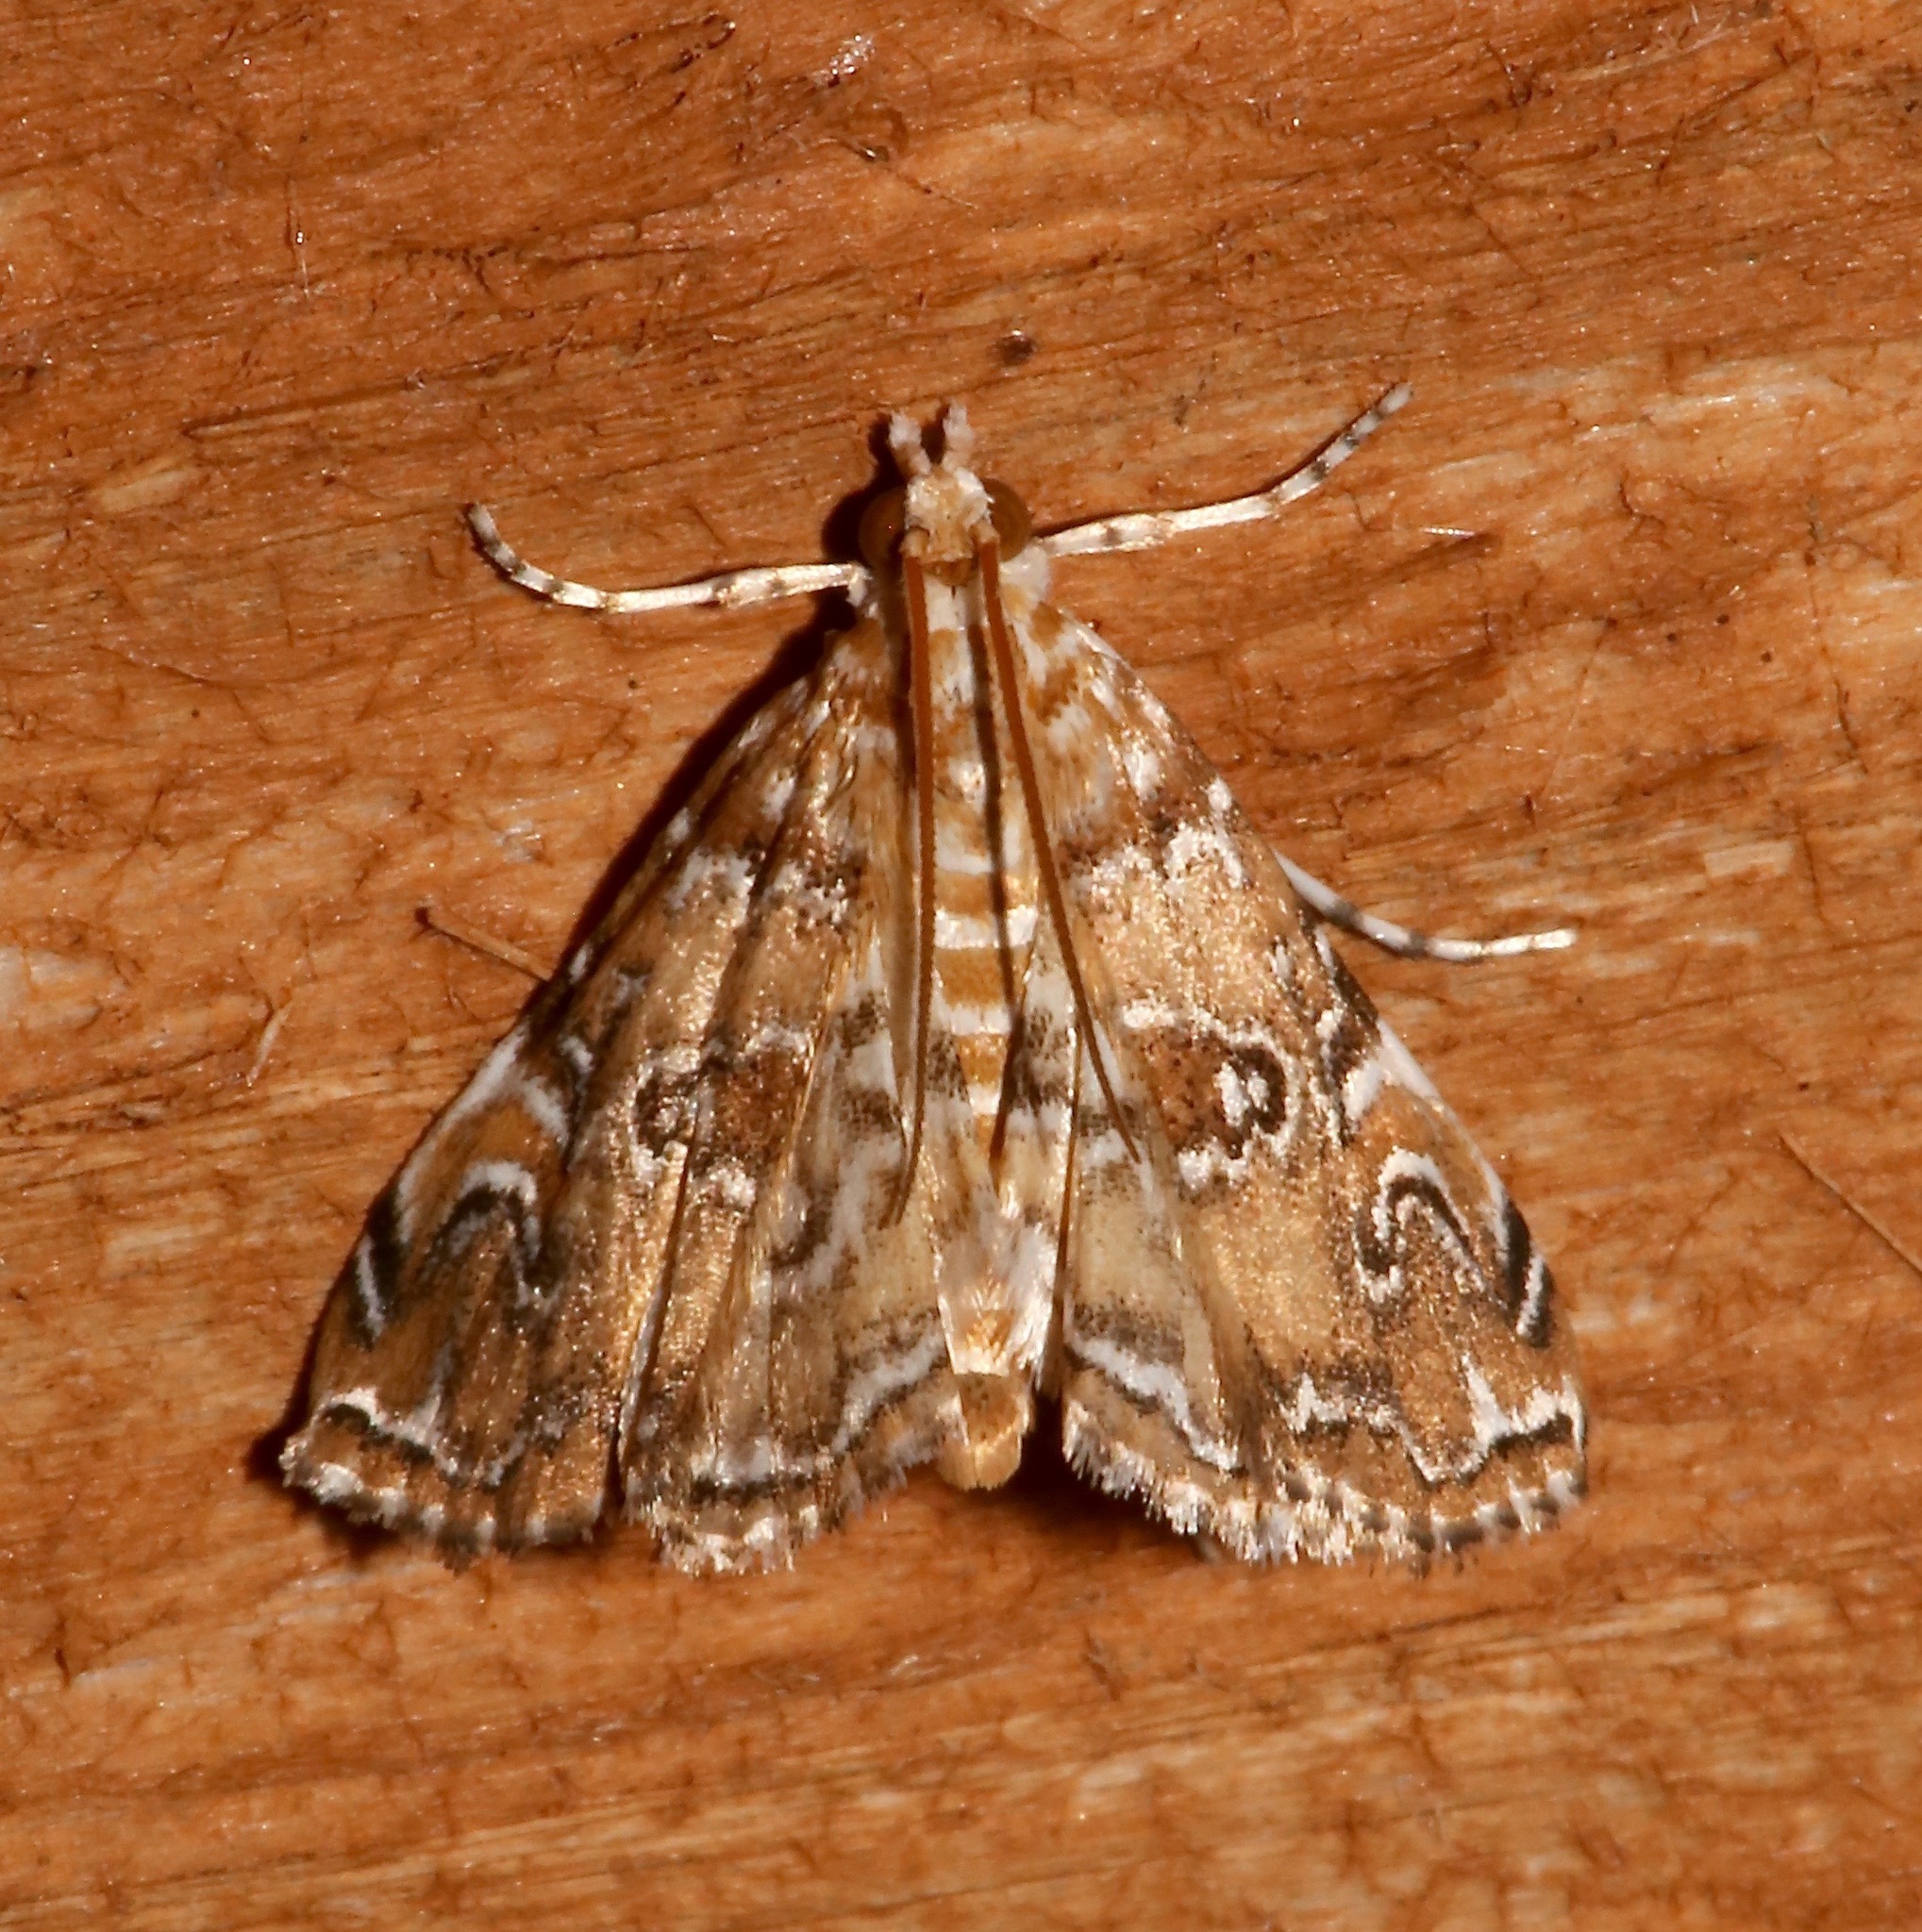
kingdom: Animalia
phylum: Arthropoda
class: Insecta
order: Lepidoptera
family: Crambidae
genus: Elophila
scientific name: Elophila gyralis
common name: Waterlily borer moth
